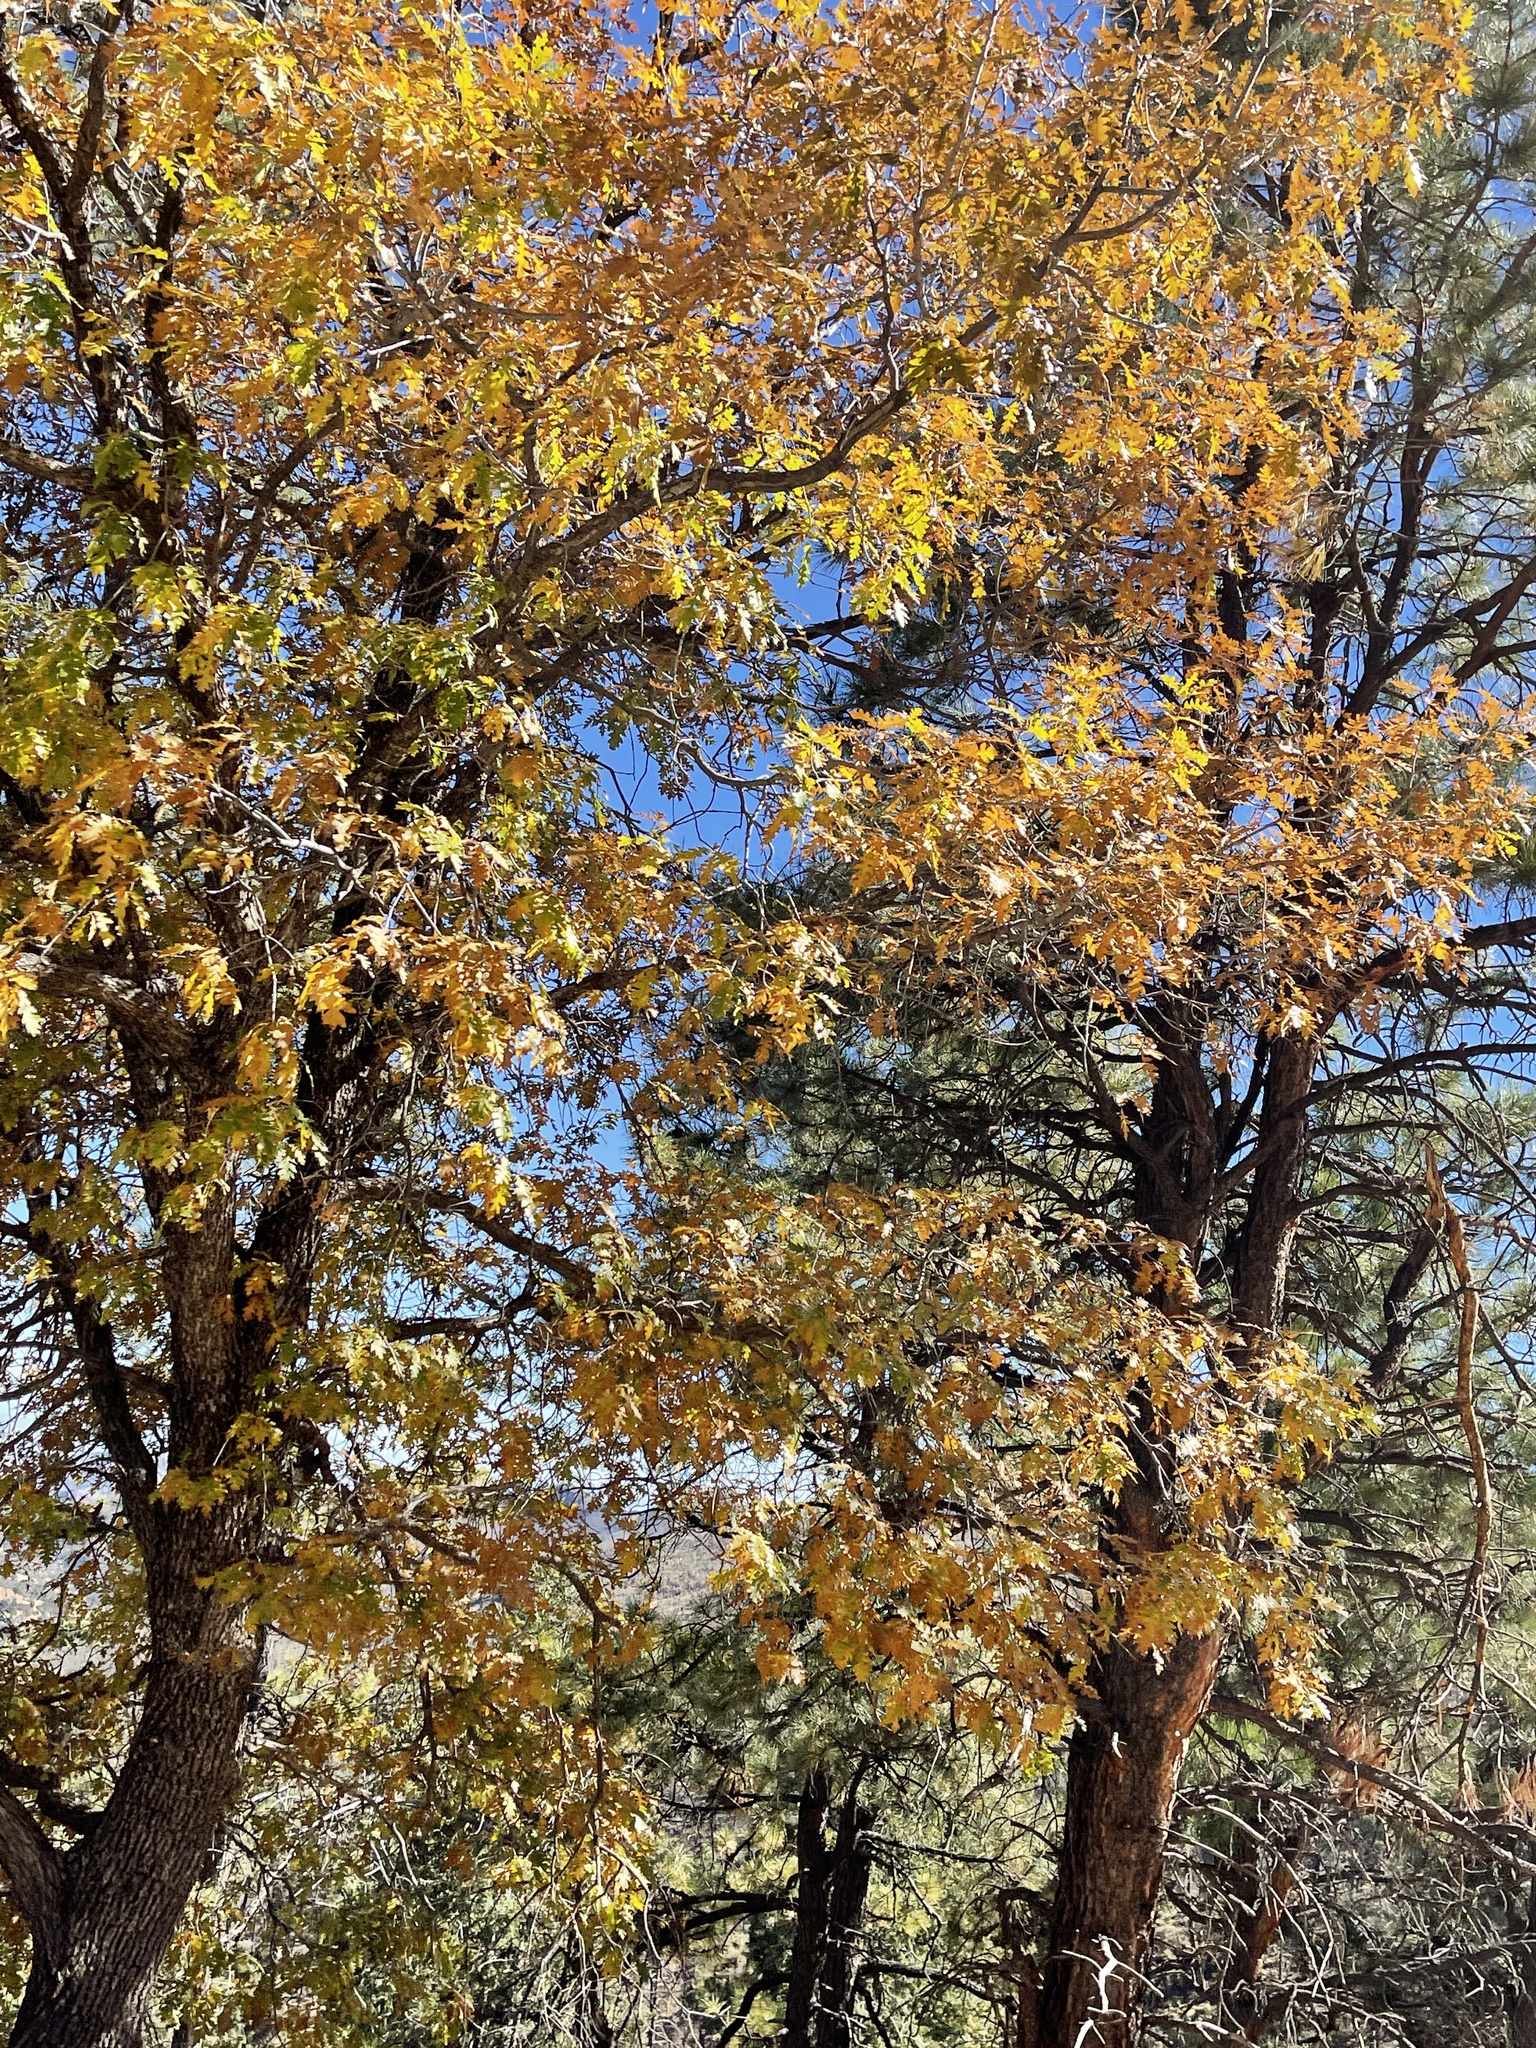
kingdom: Plantae
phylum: Tracheophyta
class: Magnoliopsida
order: Fagales
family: Fagaceae
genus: Quercus
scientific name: Quercus gambelii
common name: Gambel oak
